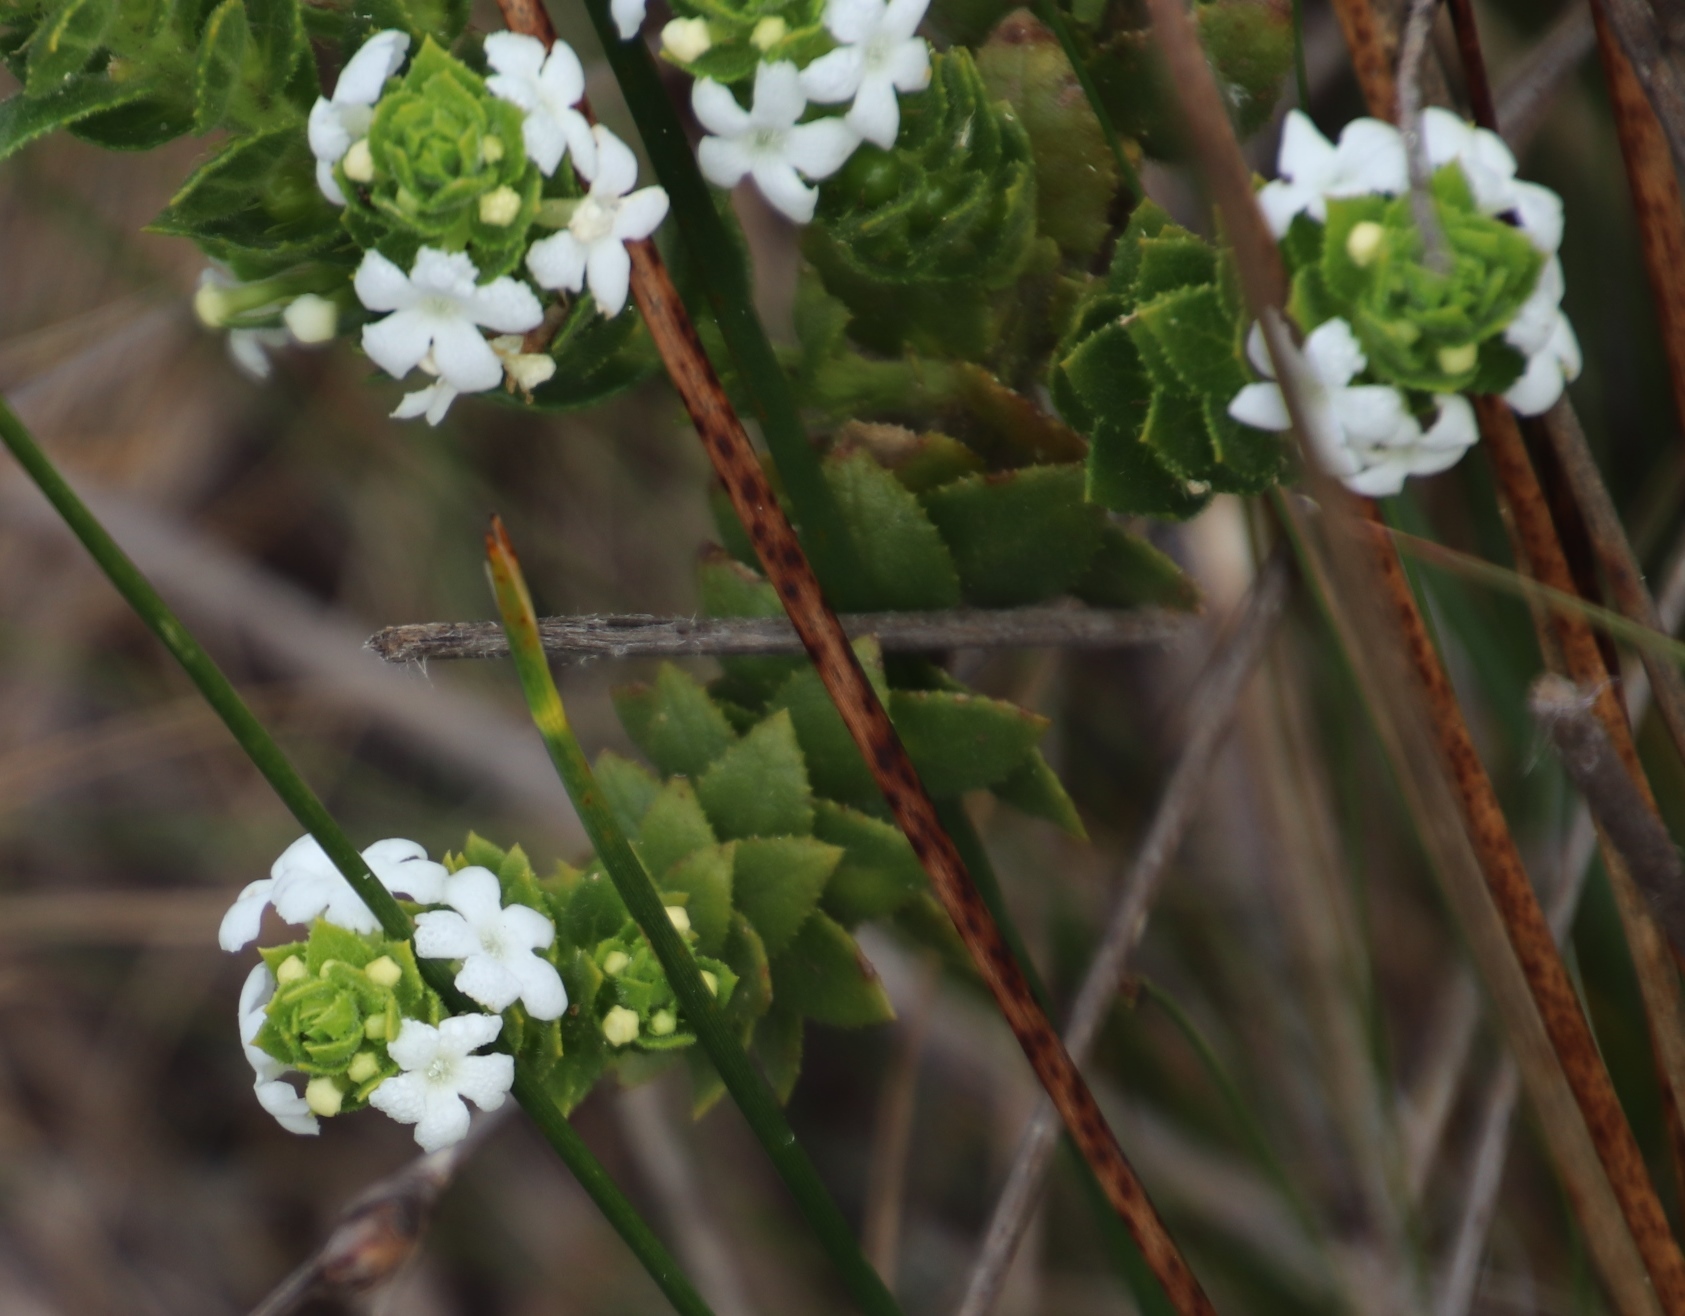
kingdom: Plantae
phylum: Tracheophyta
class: Magnoliopsida
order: Lamiales
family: Scrophulariaceae
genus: Oftia
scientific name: Oftia africana
